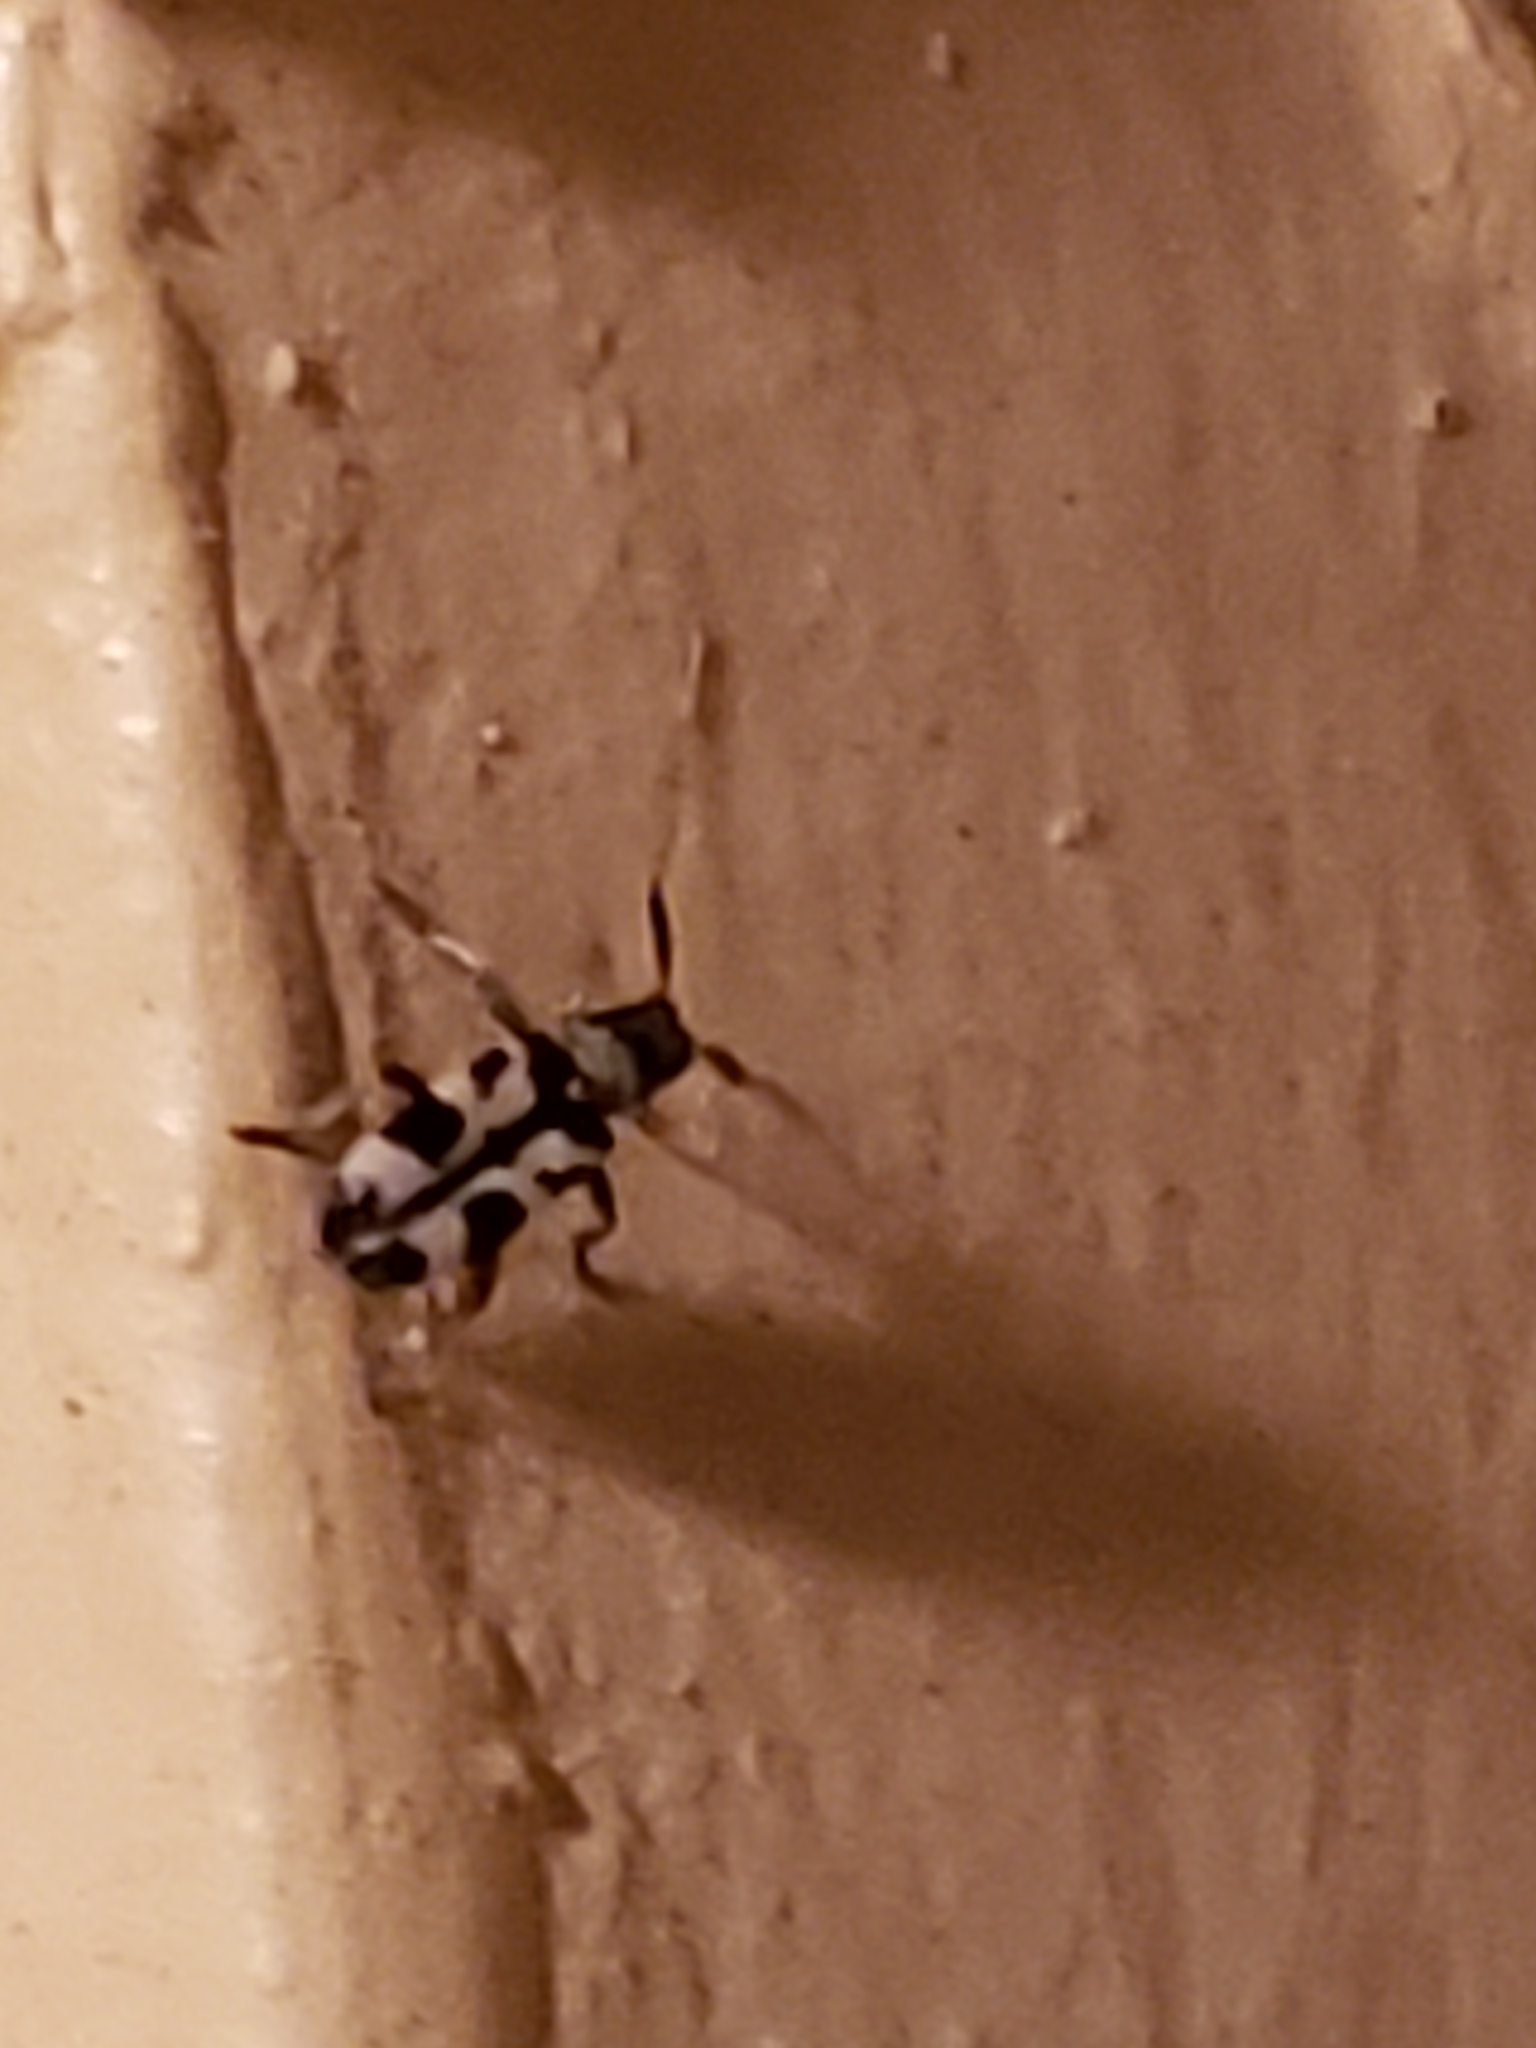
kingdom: Animalia
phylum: Arthropoda
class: Insecta
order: Coleoptera
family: Cerambycidae
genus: Urgleptes
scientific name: Urgleptes querci
